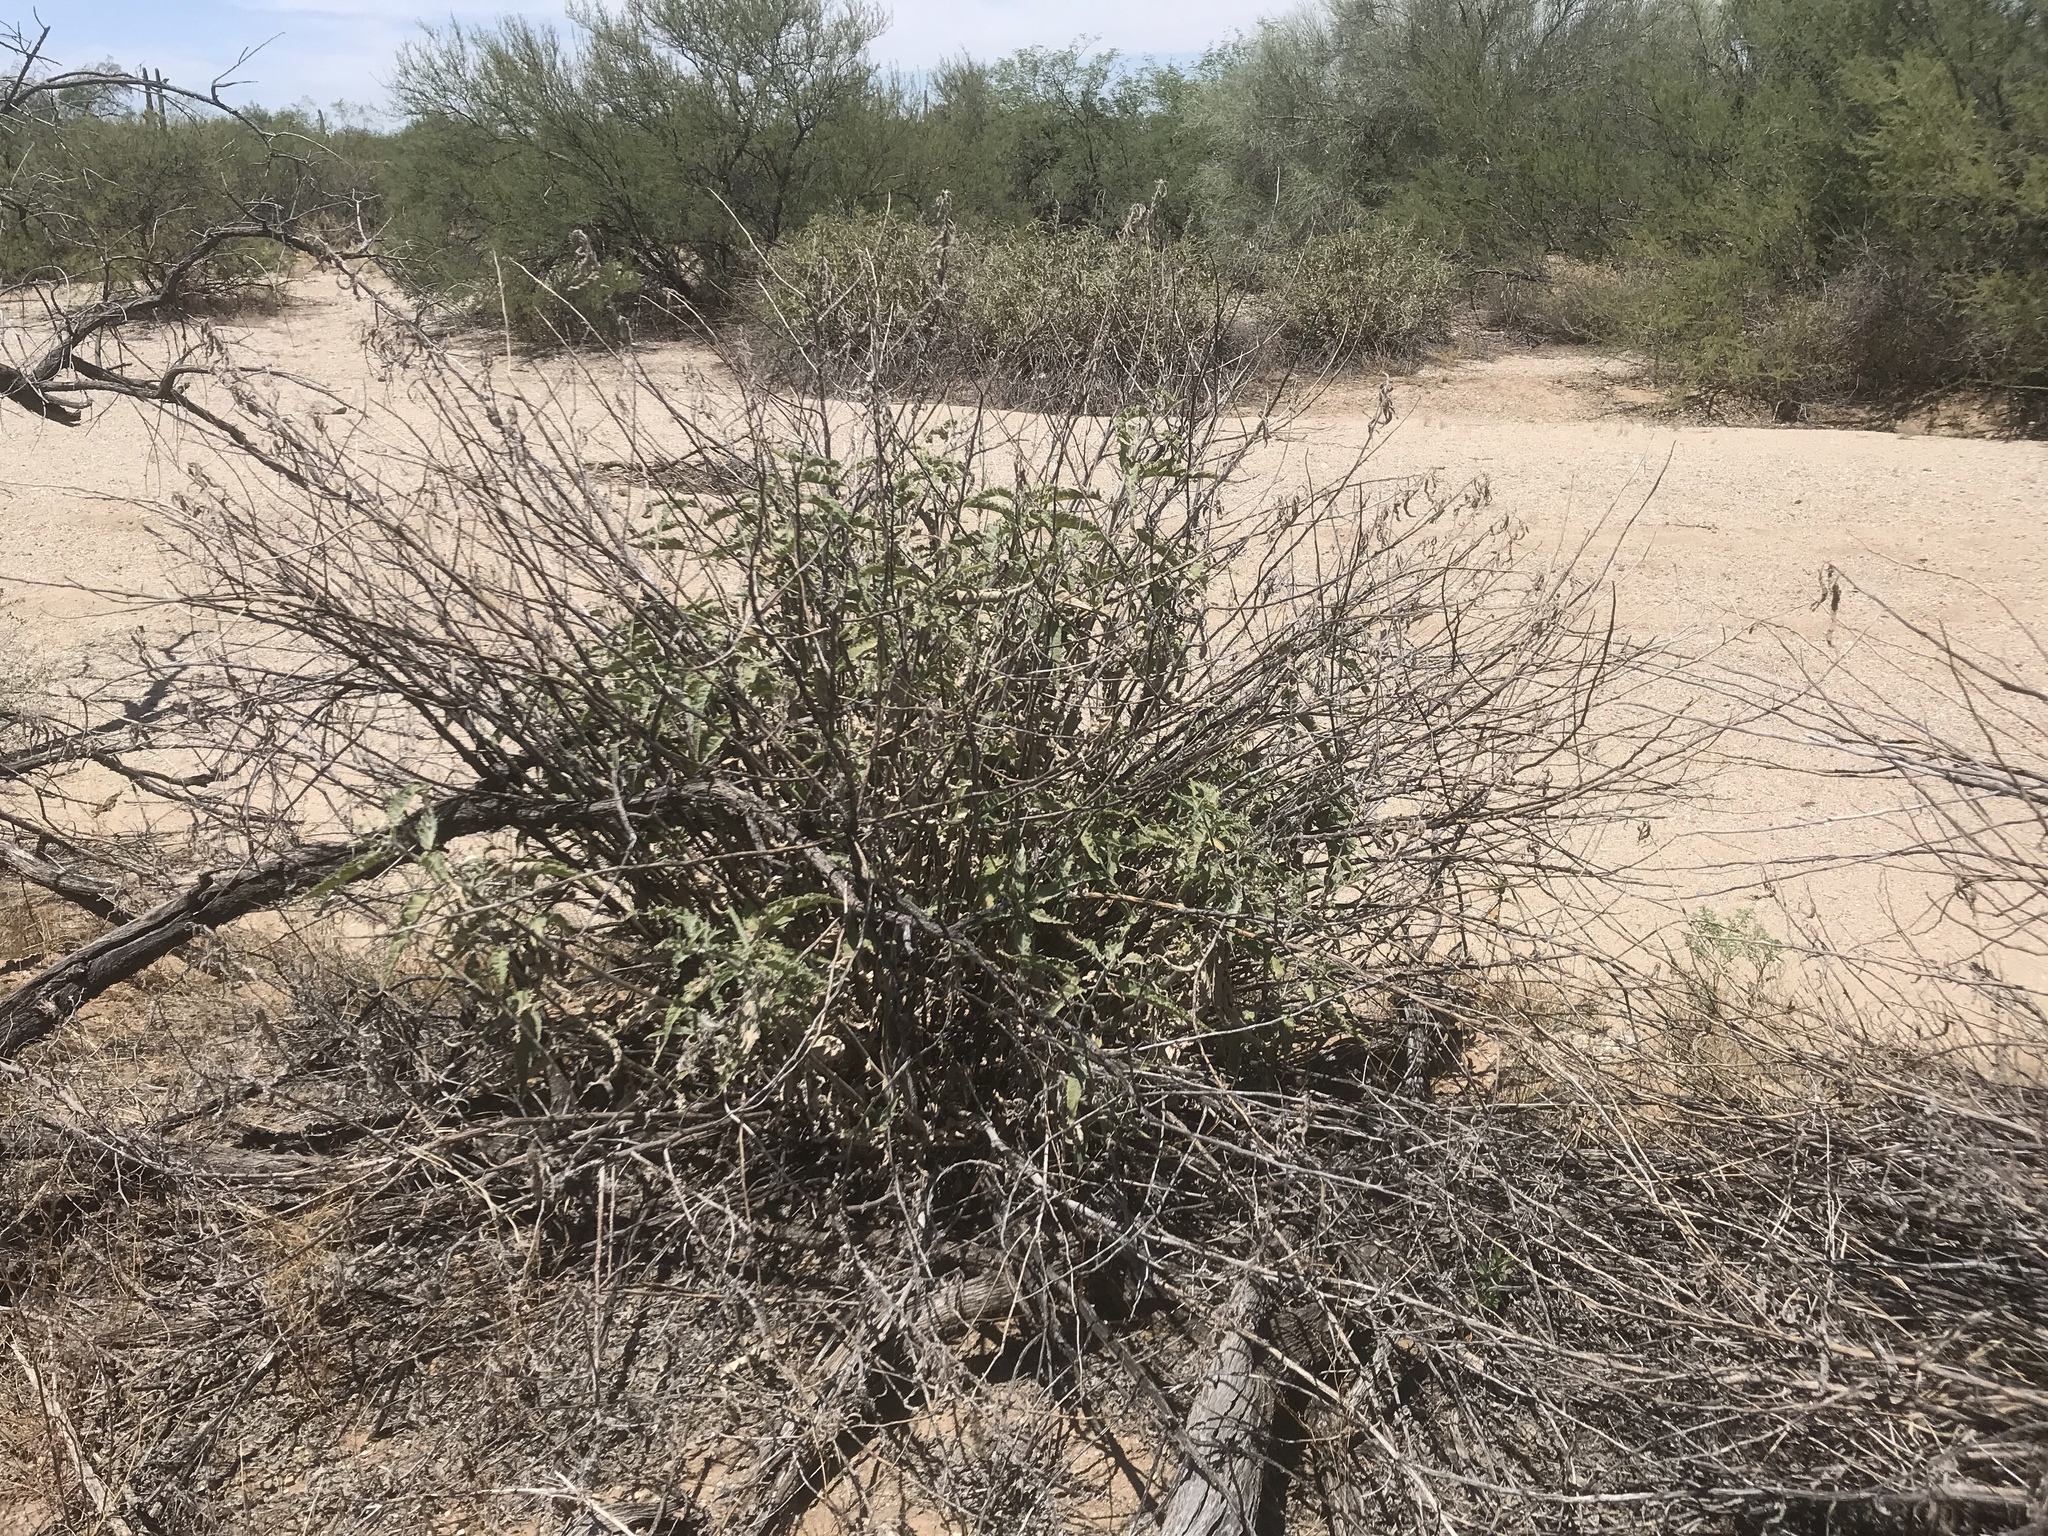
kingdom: Plantae
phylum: Tracheophyta
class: Magnoliopsida
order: Asterales
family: Asteraceae
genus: Ambrosia
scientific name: Ambrosia ambrosioides
